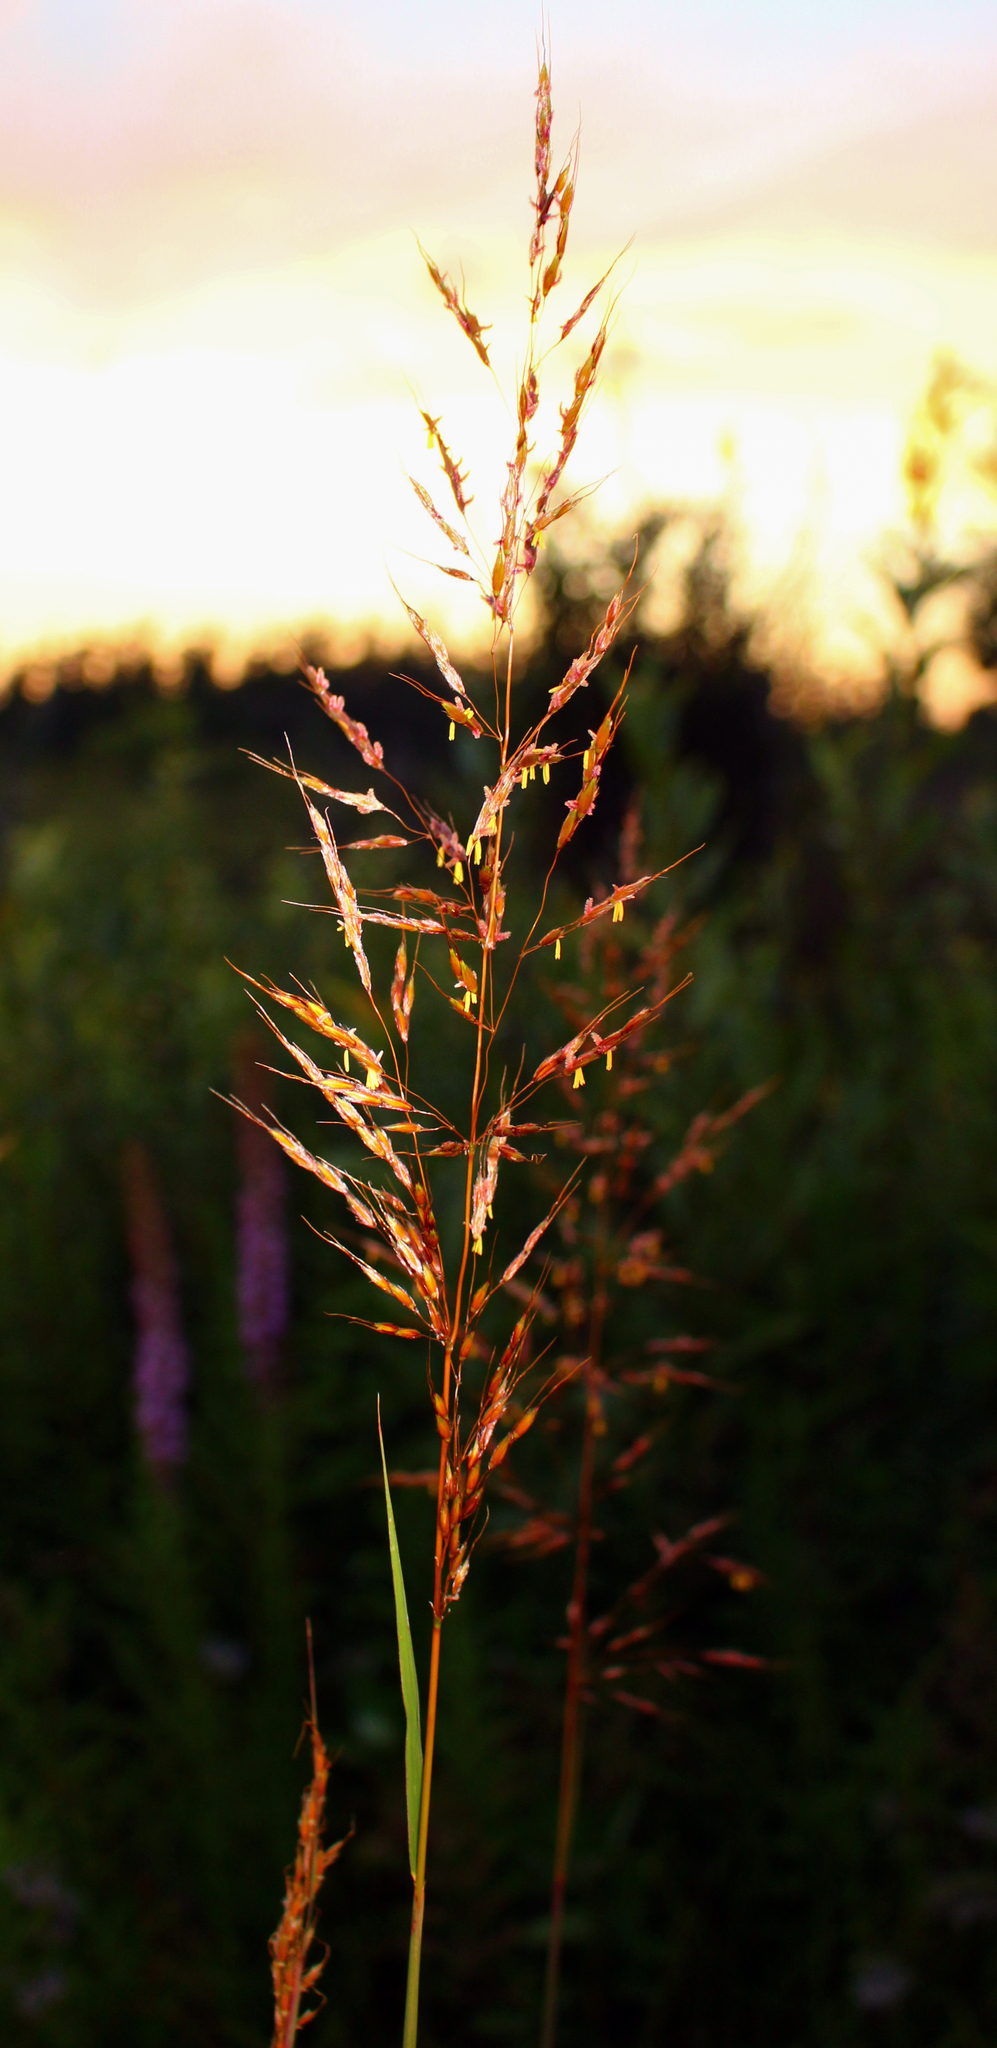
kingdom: Plantae
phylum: Tracheophyta
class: Liliopsida
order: Poales
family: Poaceae
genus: Sorghastrum
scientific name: Sorghastrum nutans
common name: Indian grass
